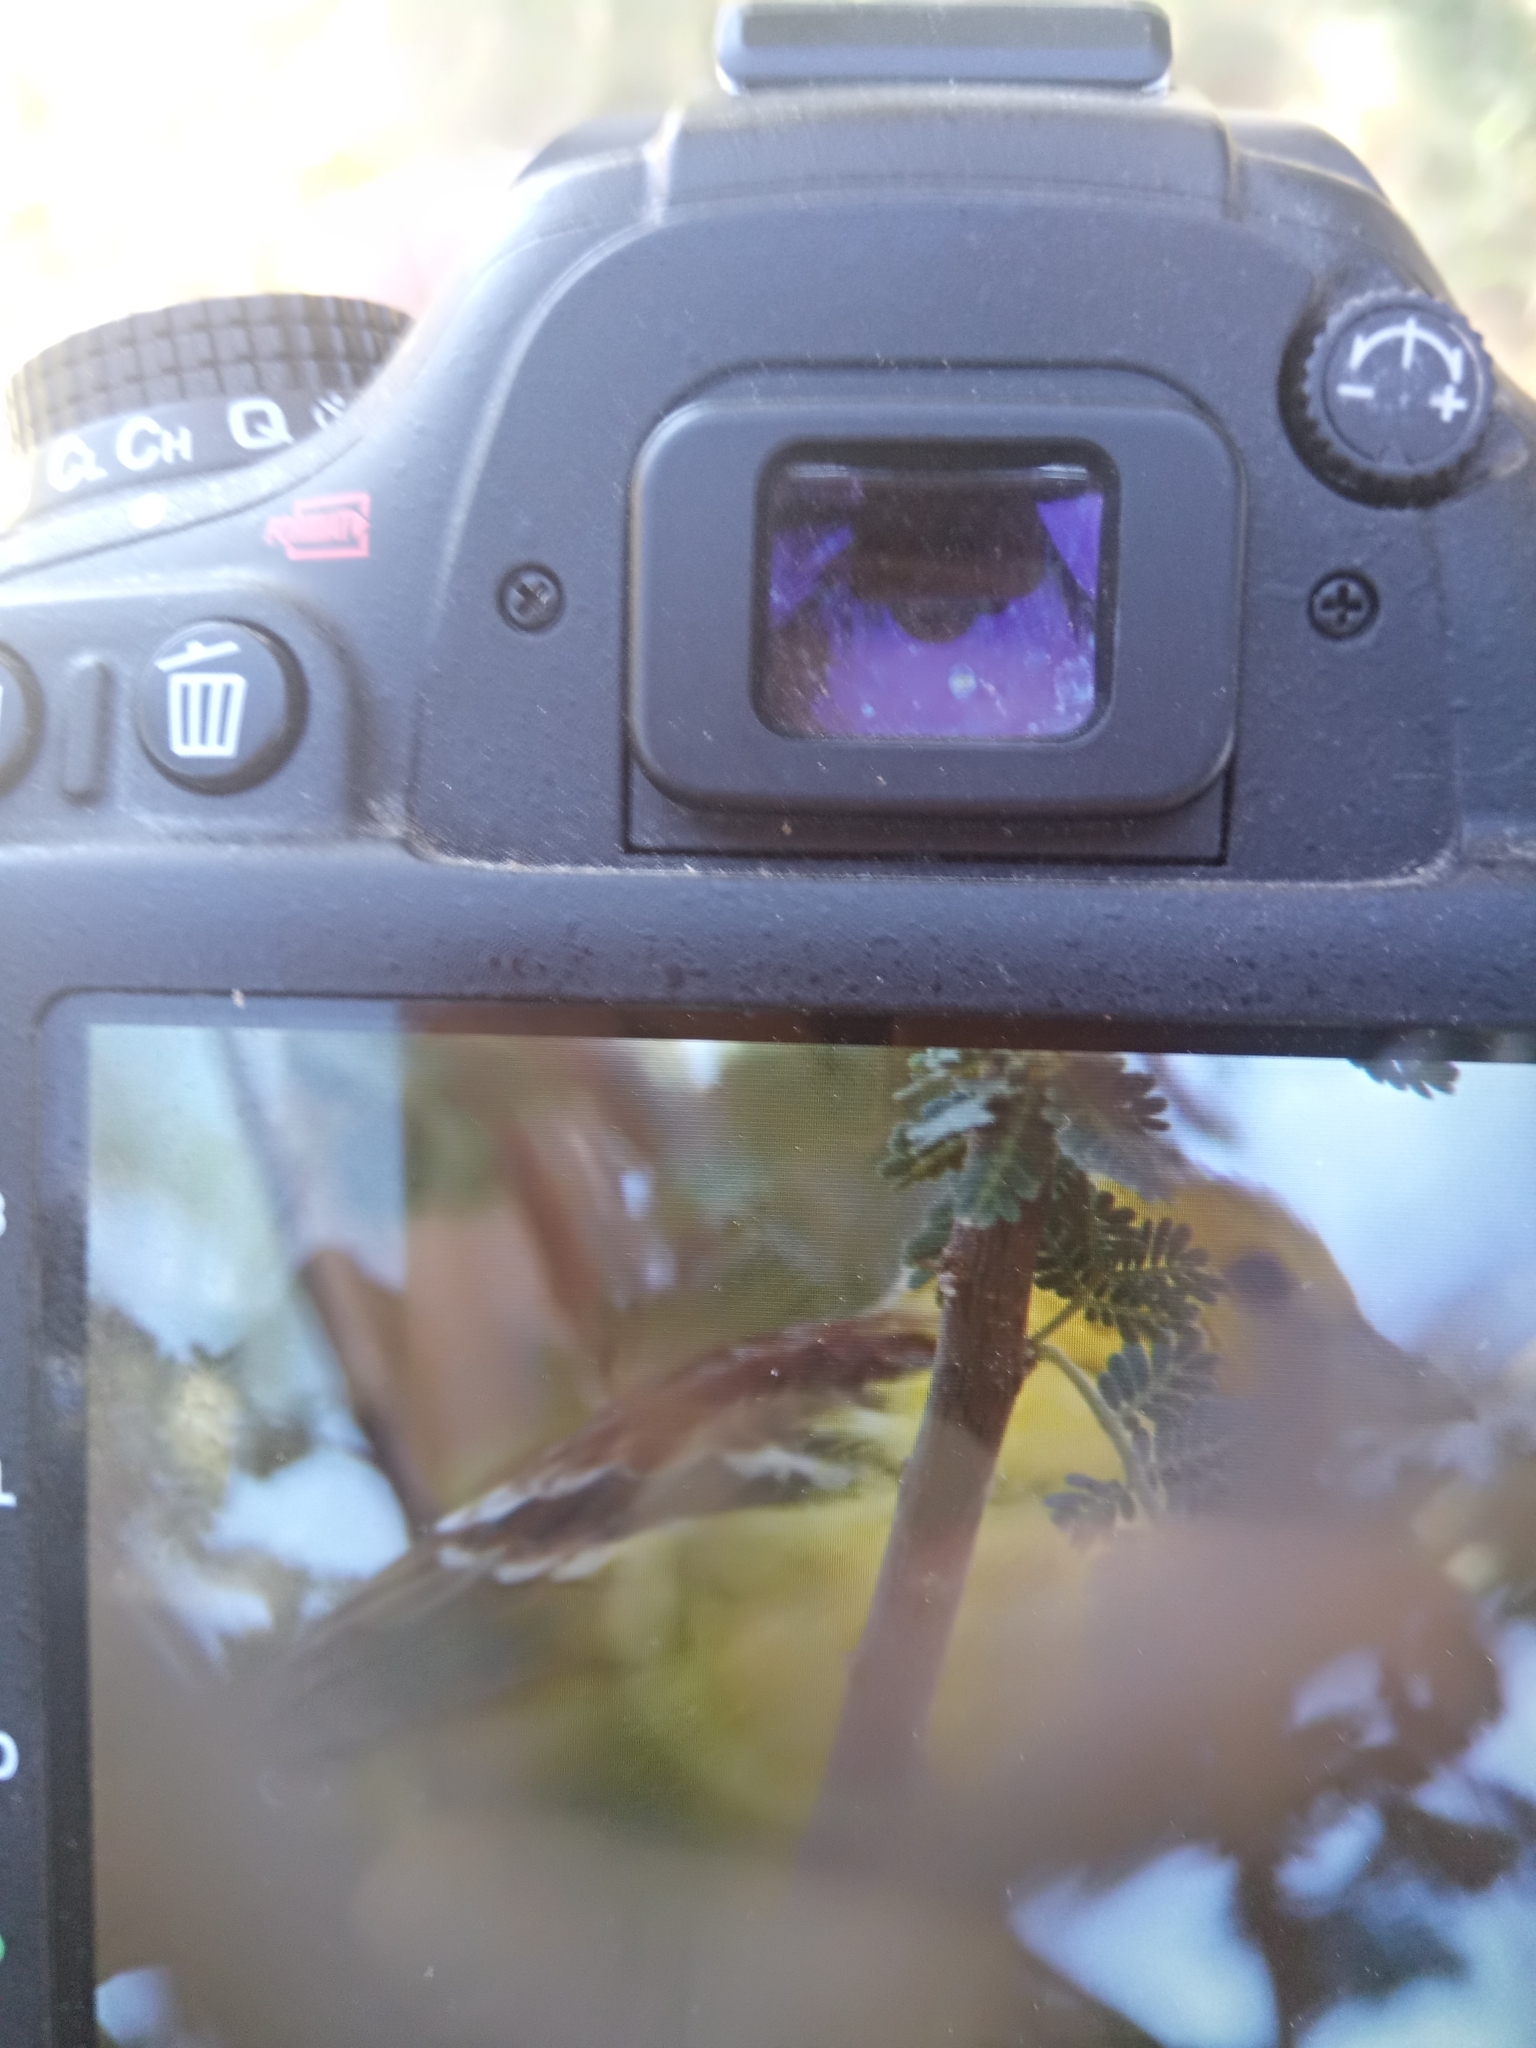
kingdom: Animalia
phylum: Chordata
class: Aves
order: Passeriformes
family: Passeridae
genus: Passer
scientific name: Passer luteus
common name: Sudan golden sparrow
